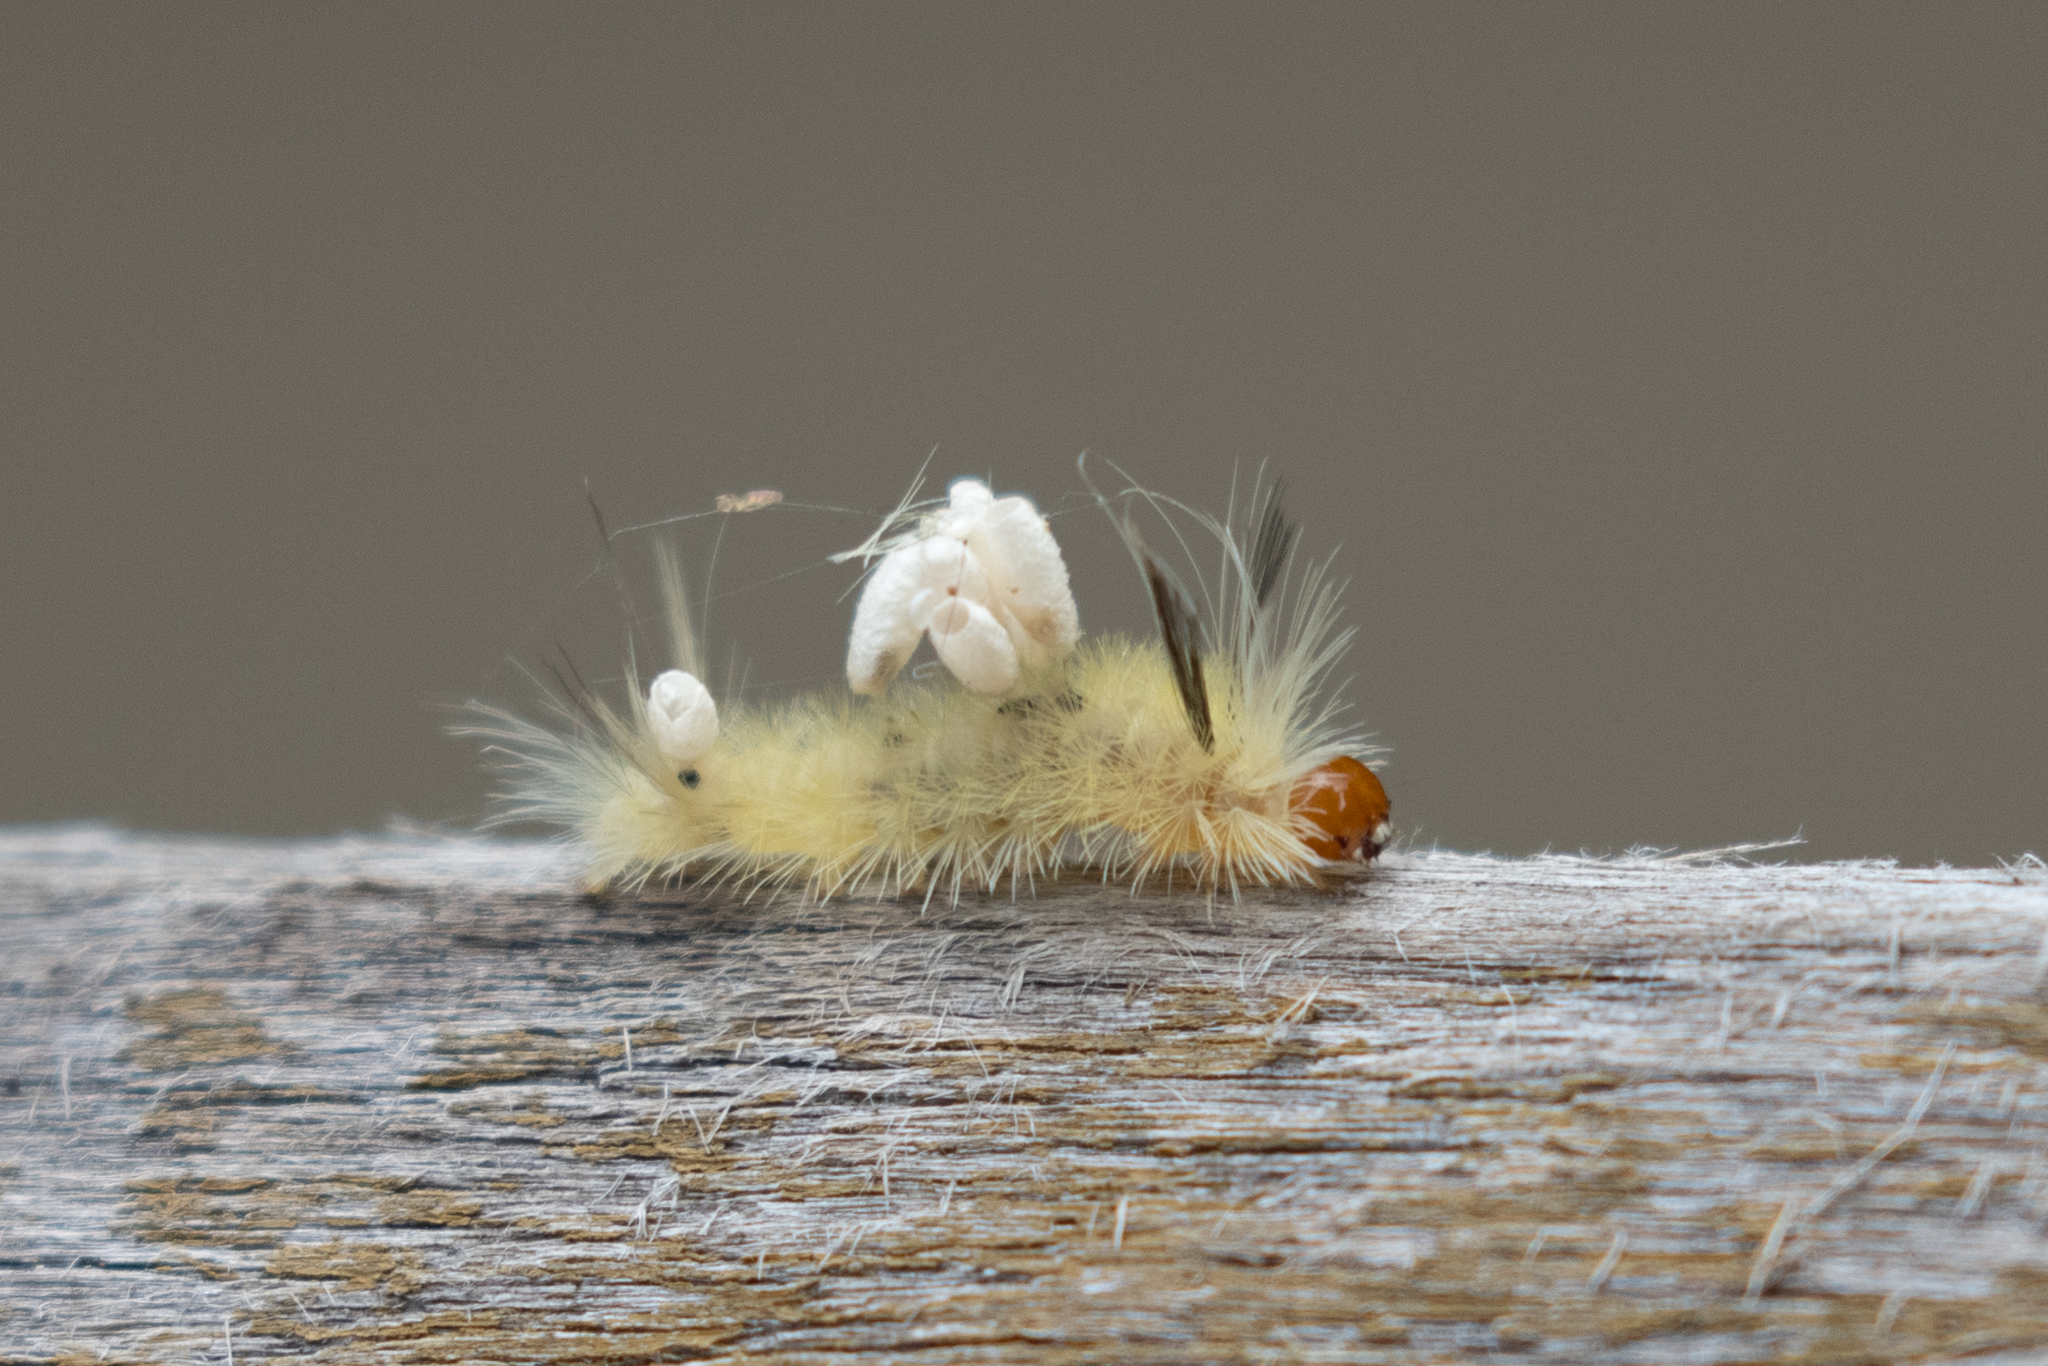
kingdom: Animalia
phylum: Arthropoda
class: Insecta
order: Lepidoptera
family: Erebidae
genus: Halysidota
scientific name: Halysidota tessellaris
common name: Banded tussock moth
